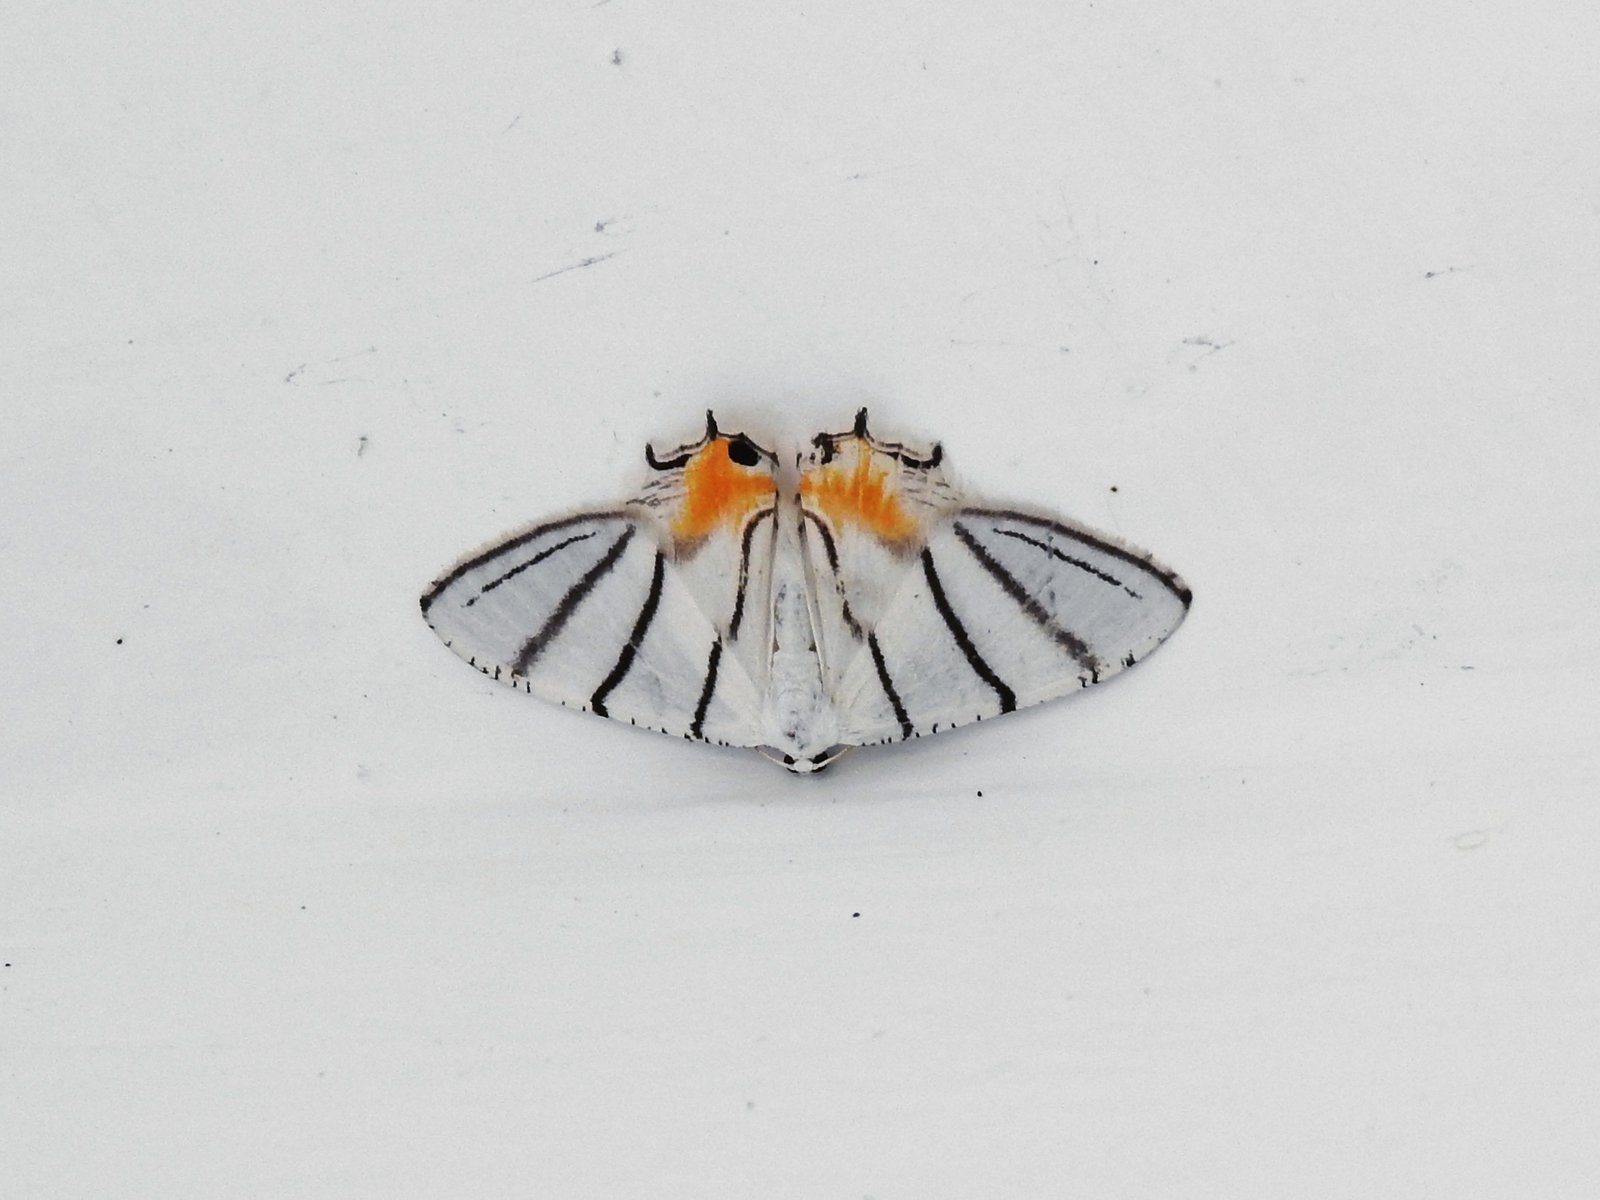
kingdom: Animalia
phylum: Arthropoda
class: Insecta
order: Lepidoptera
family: Uraniidae
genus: Epiplema
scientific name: Epiplema himala
